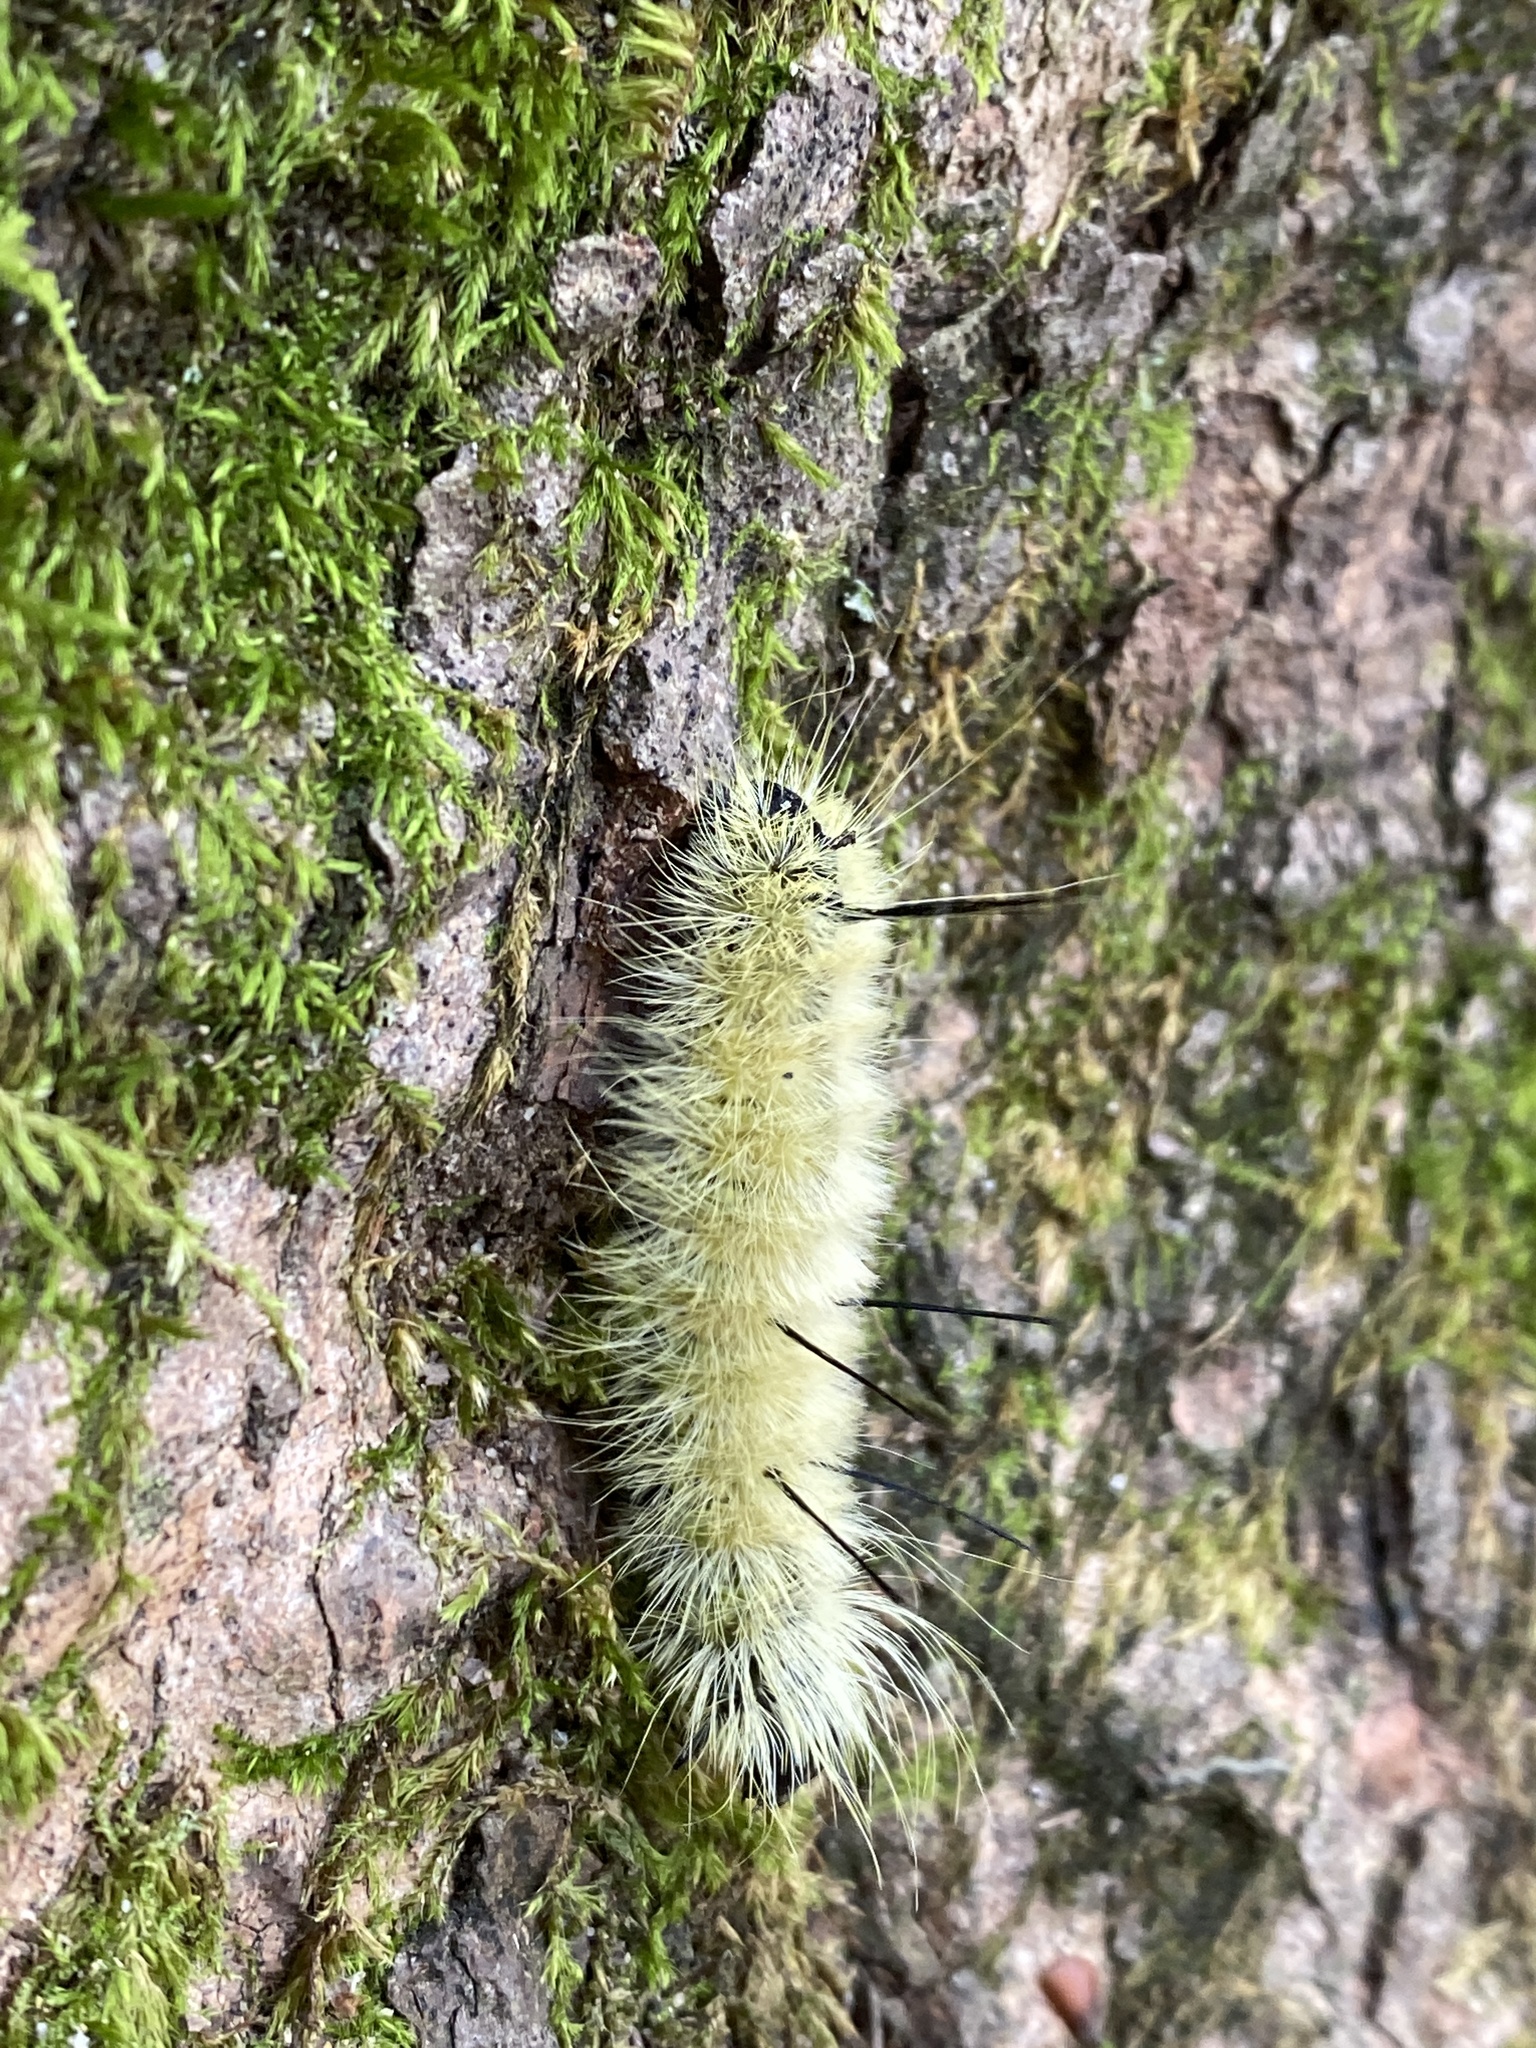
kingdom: Animalia
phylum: Arthropoda
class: Insecta
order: Lepidoptera
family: Noctuidae
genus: Acronicta
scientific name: Acronicta americana
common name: American dagger
